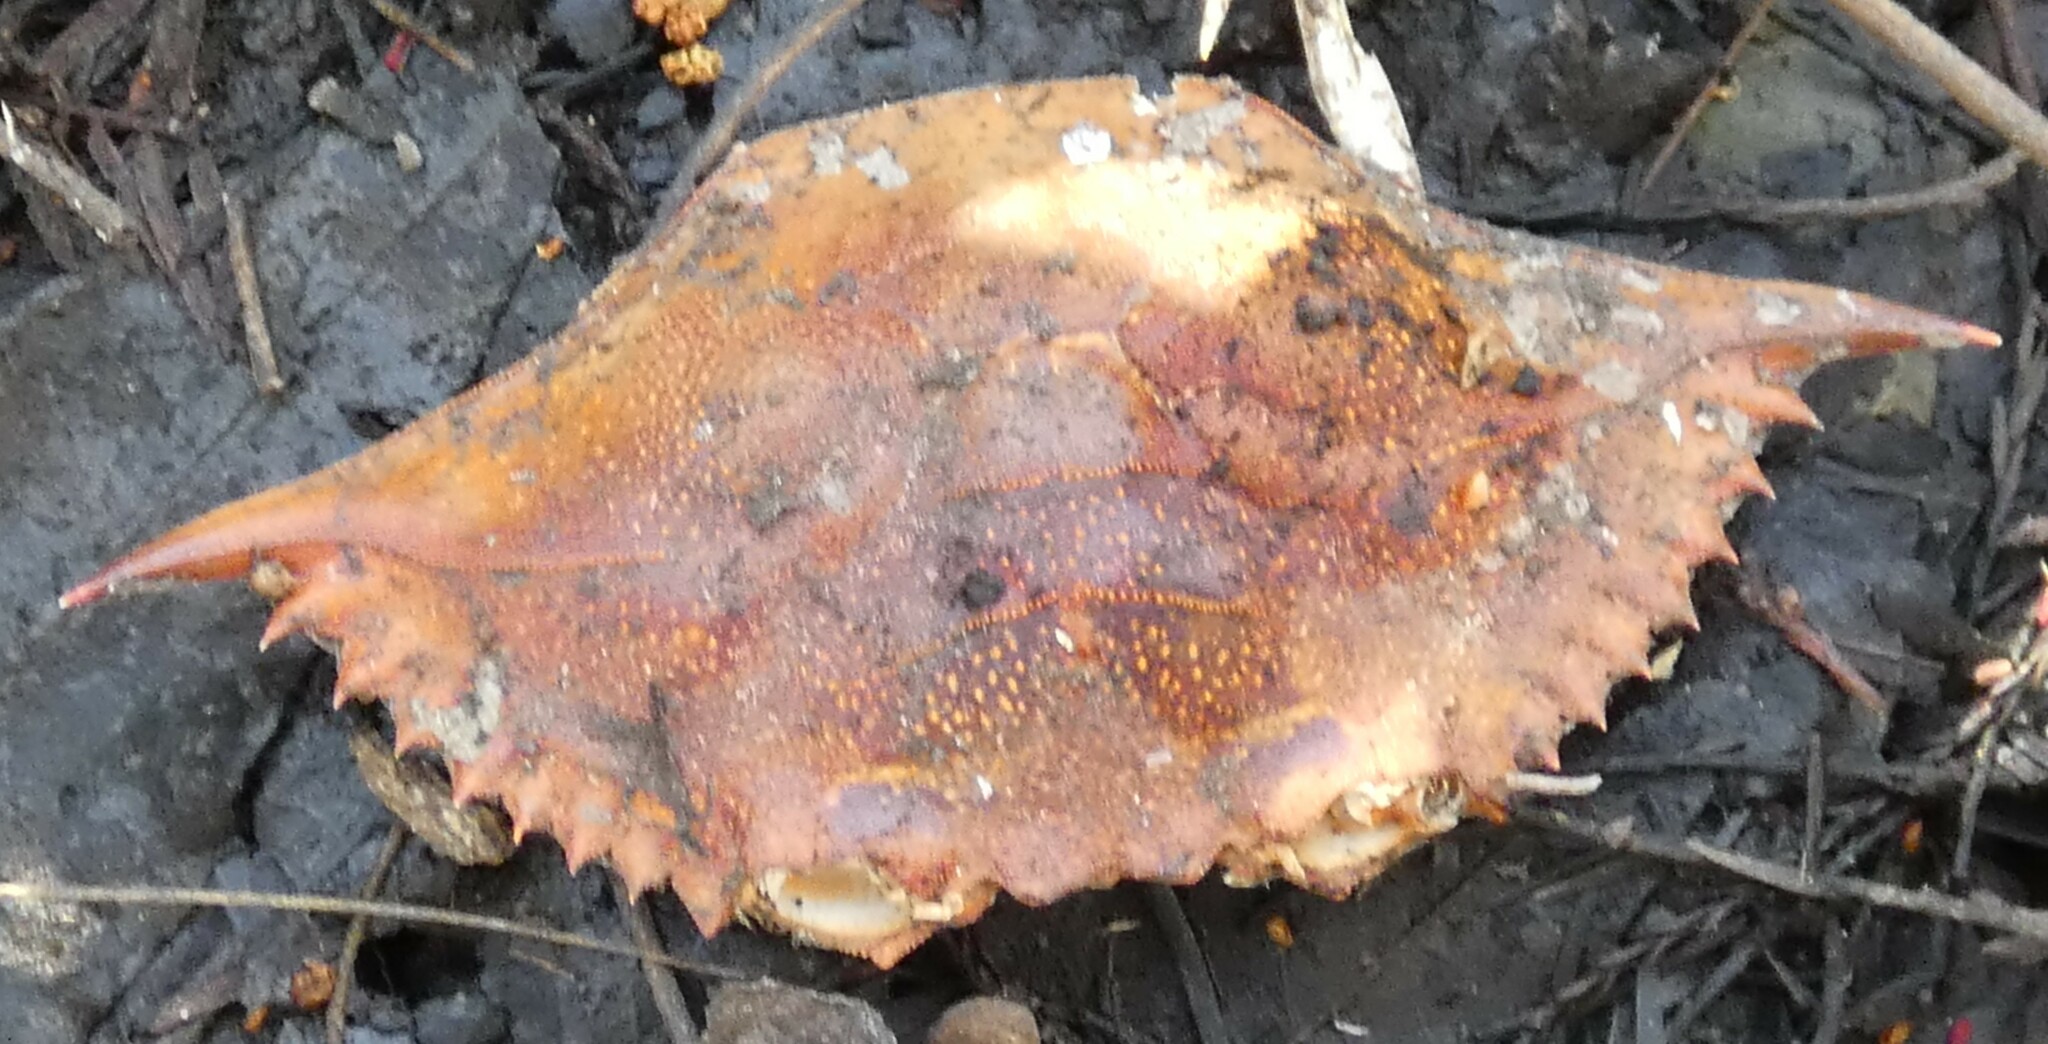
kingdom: Animalia
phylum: Arthropoda
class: Malacostraca
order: Decapoda
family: Portunidae
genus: Callinectes
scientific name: Callinectes sapidus
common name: Blue crab
